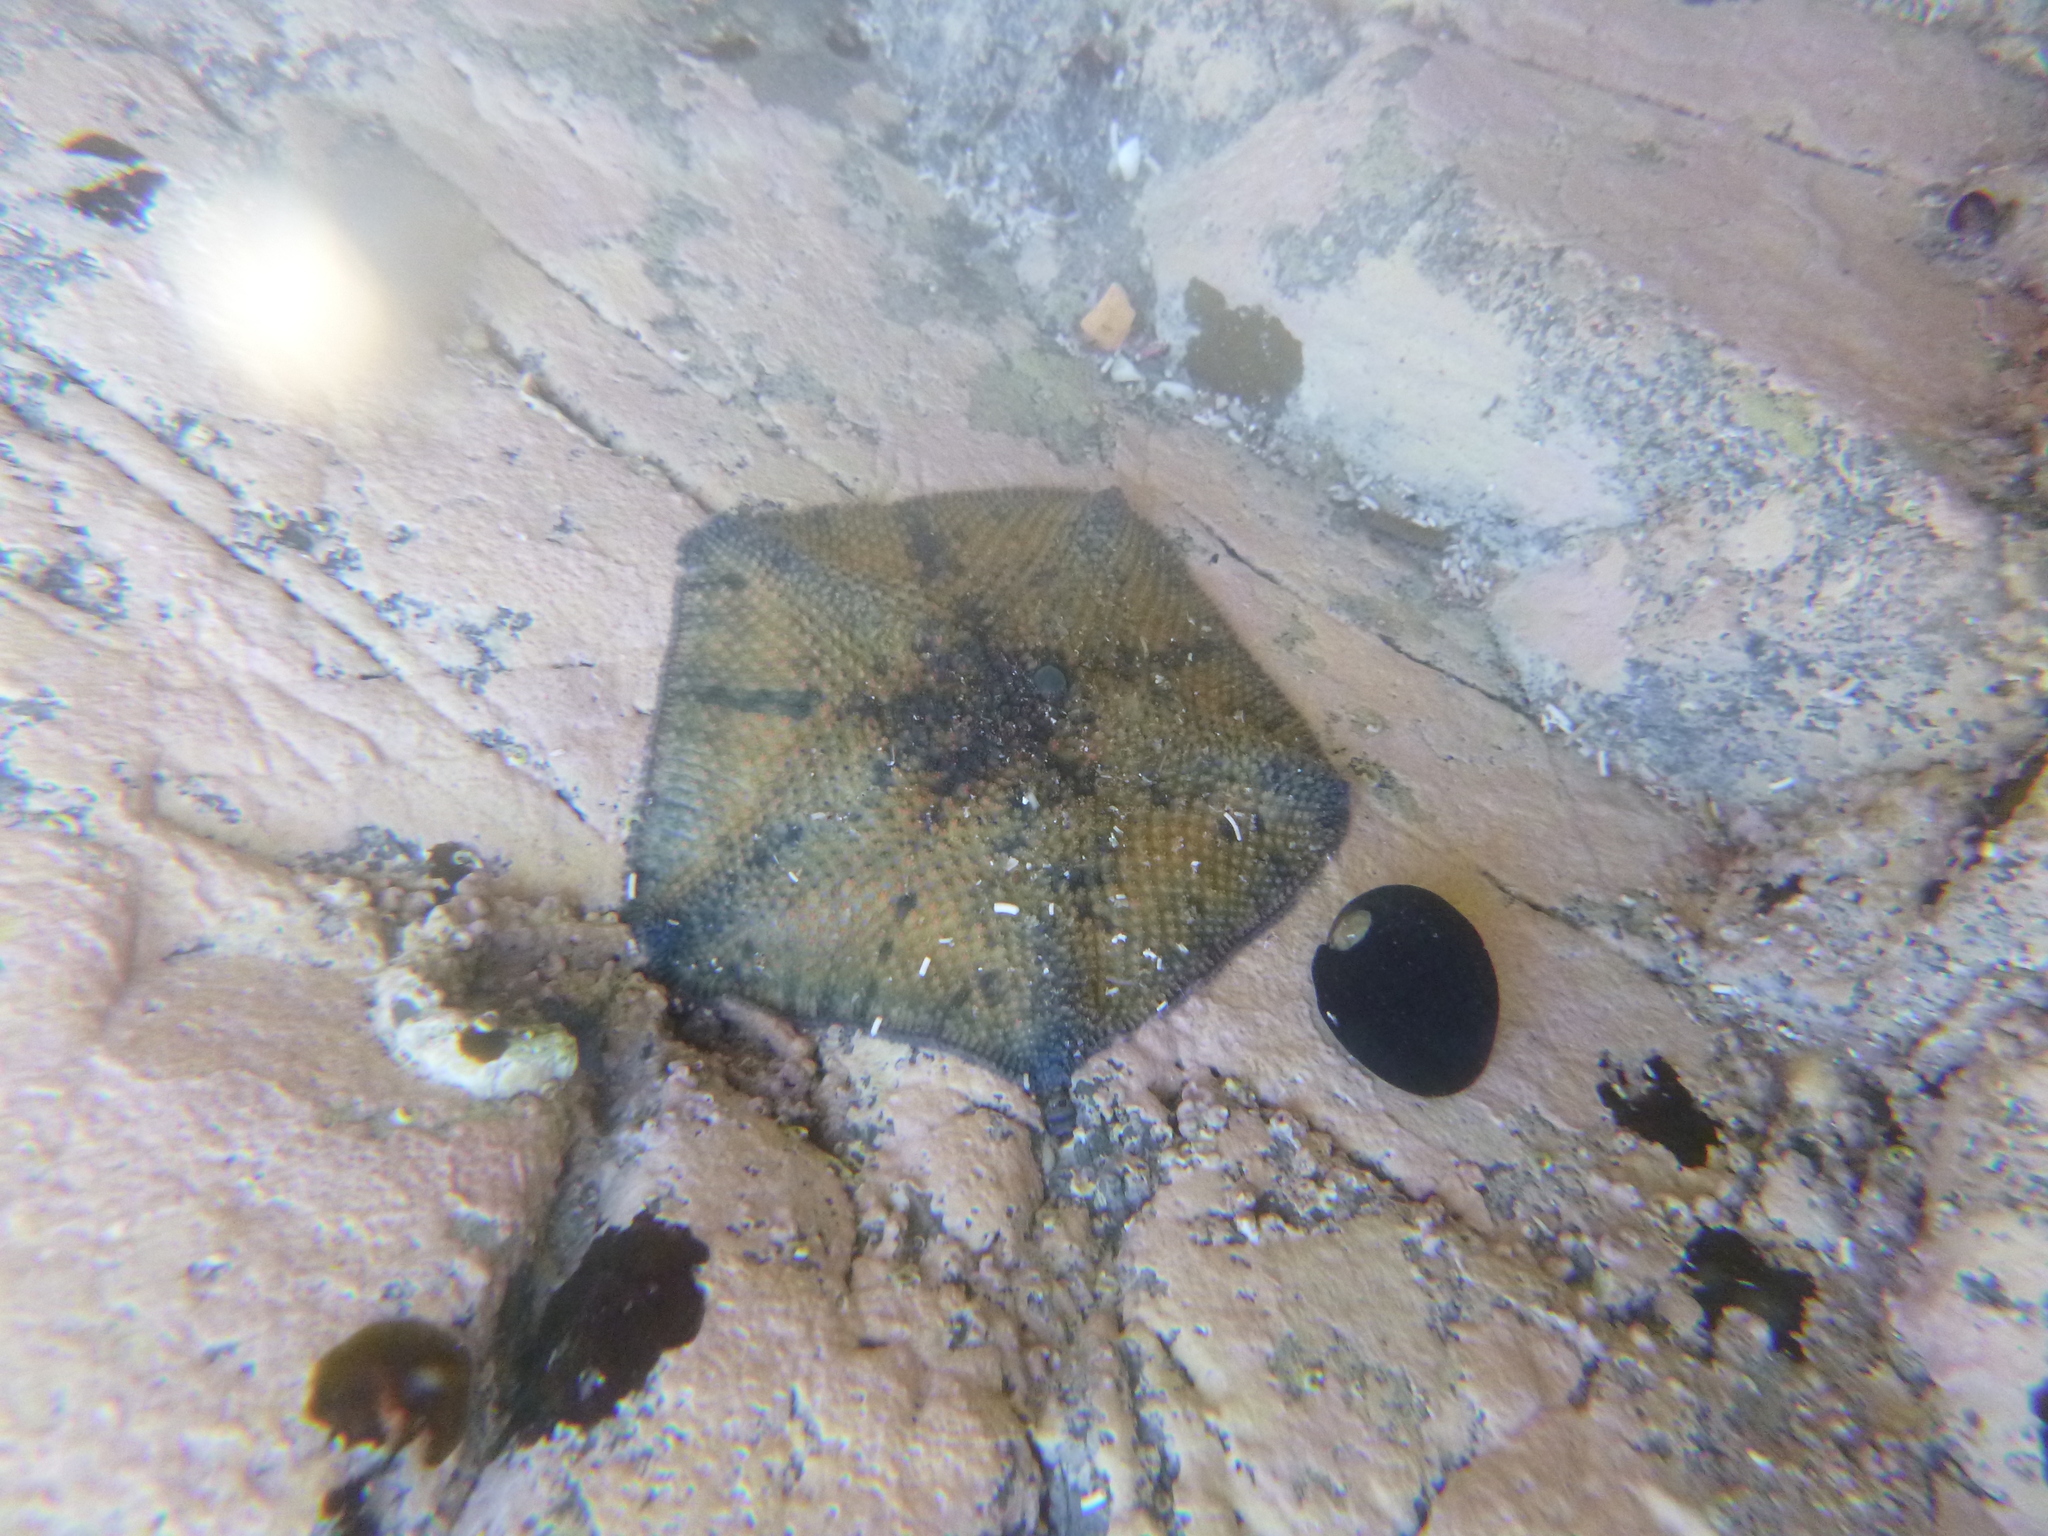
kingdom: Animalia
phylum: Echinodermata
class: Asteroidea
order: Valvatida
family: Asterinidae
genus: Meridiastra
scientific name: Meridiastra mortenseni
